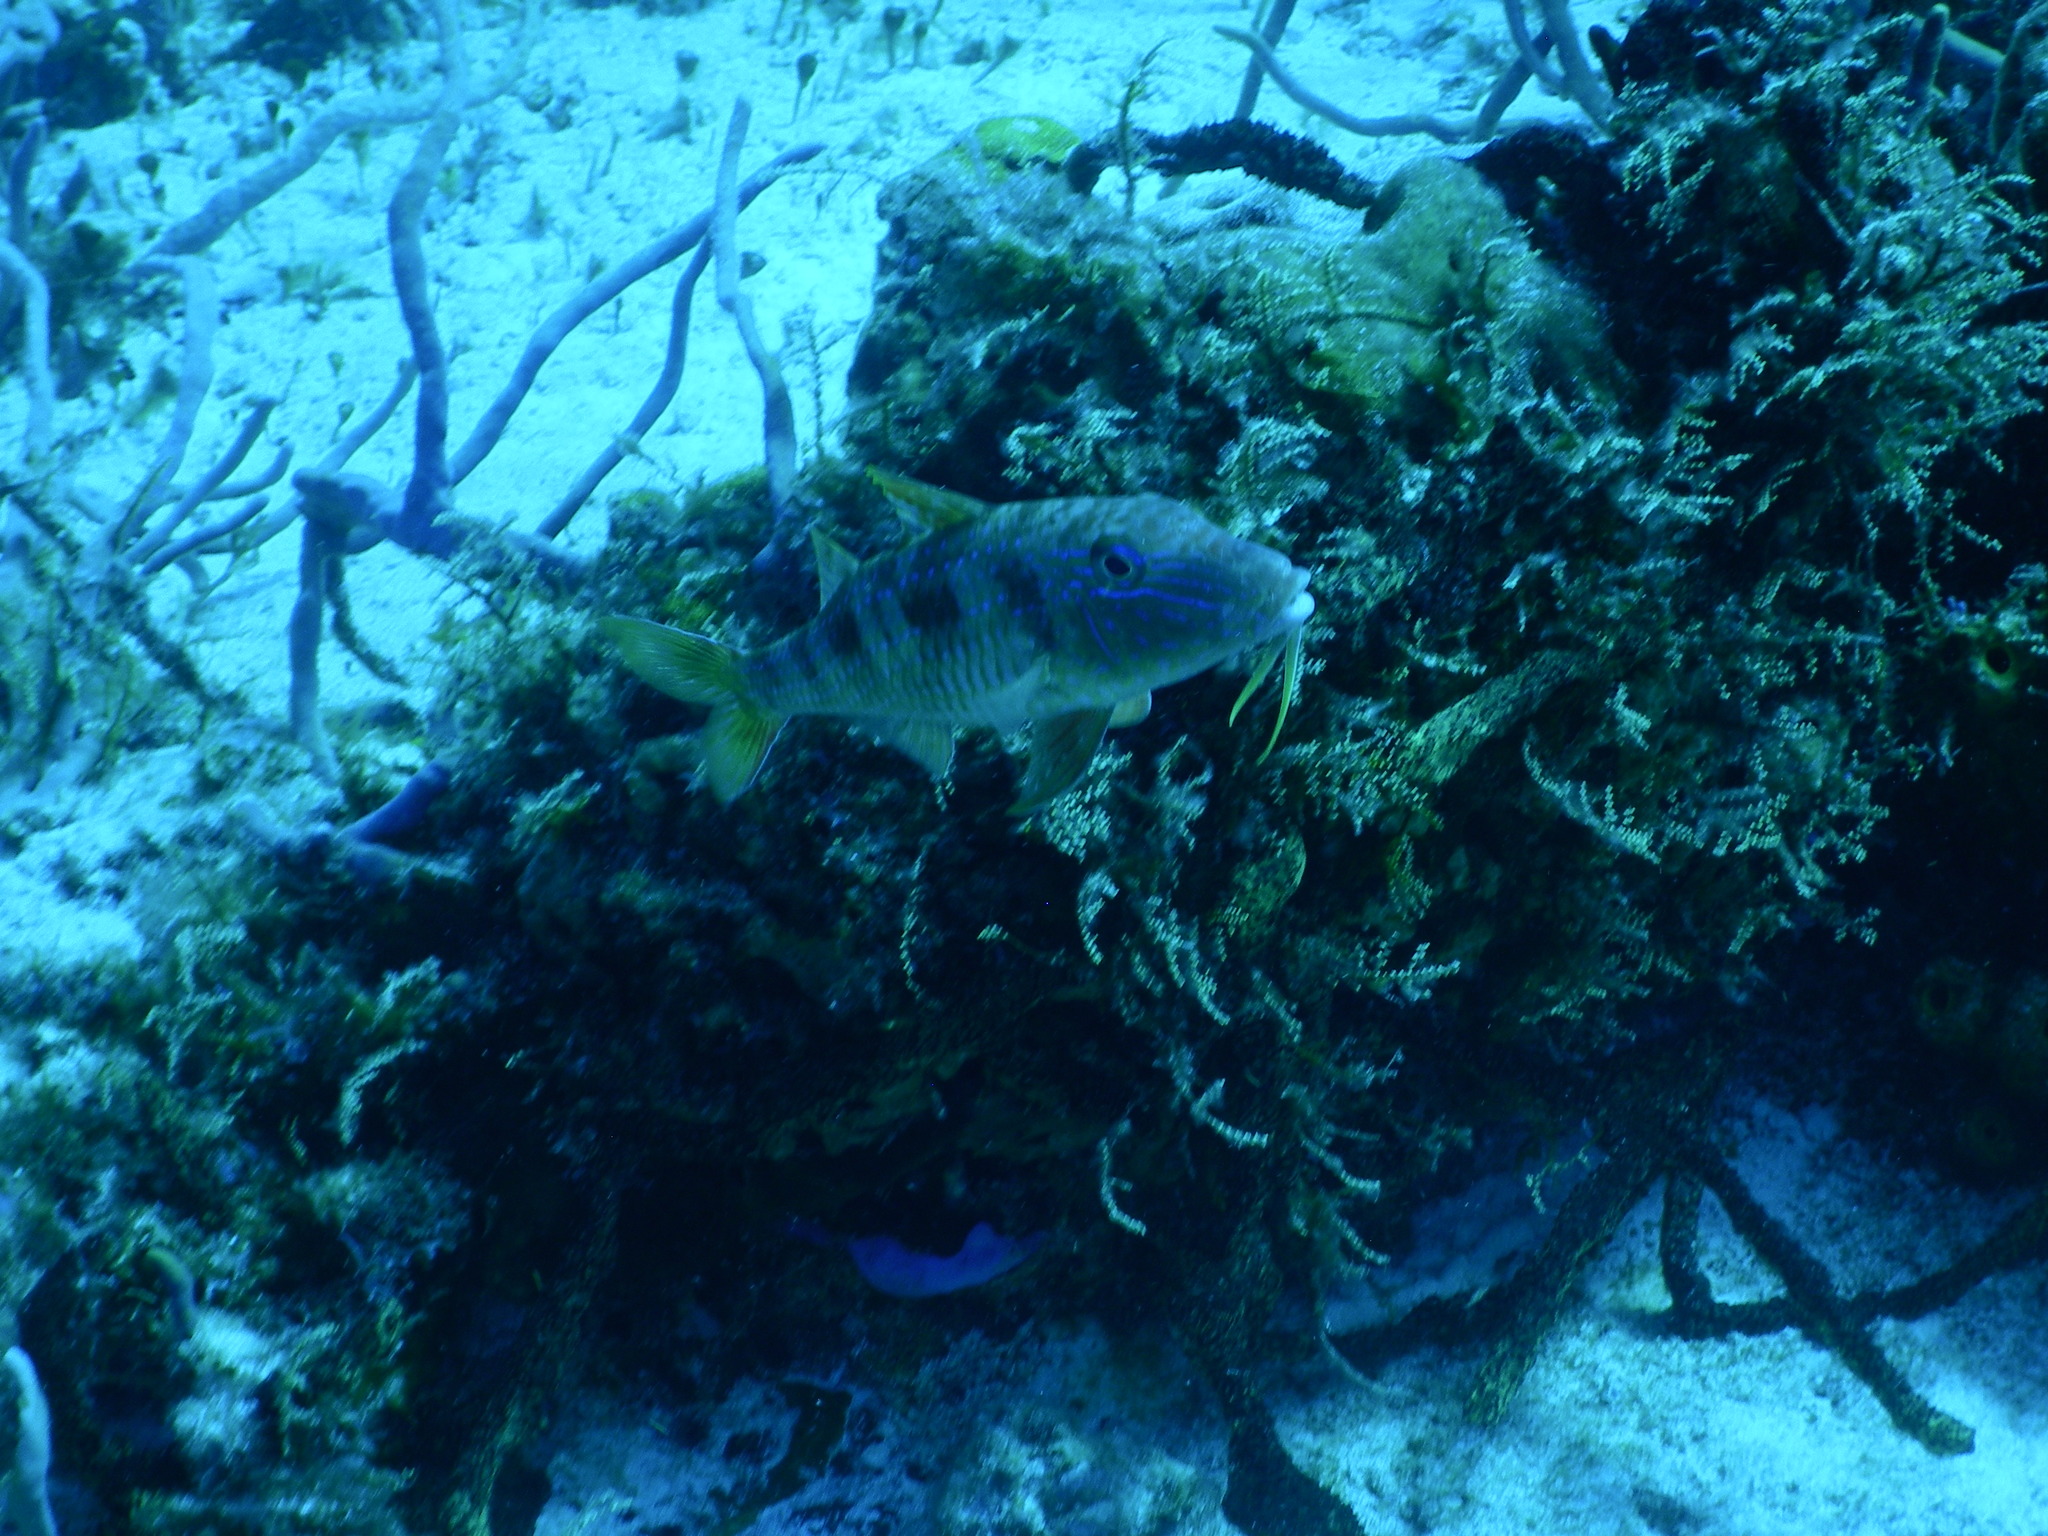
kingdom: Animalia
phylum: Chordata
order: Perciformes
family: Mullidae
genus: Pseudupeneus
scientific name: Pseudupeneus maculatus
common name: Spotted goatfish
